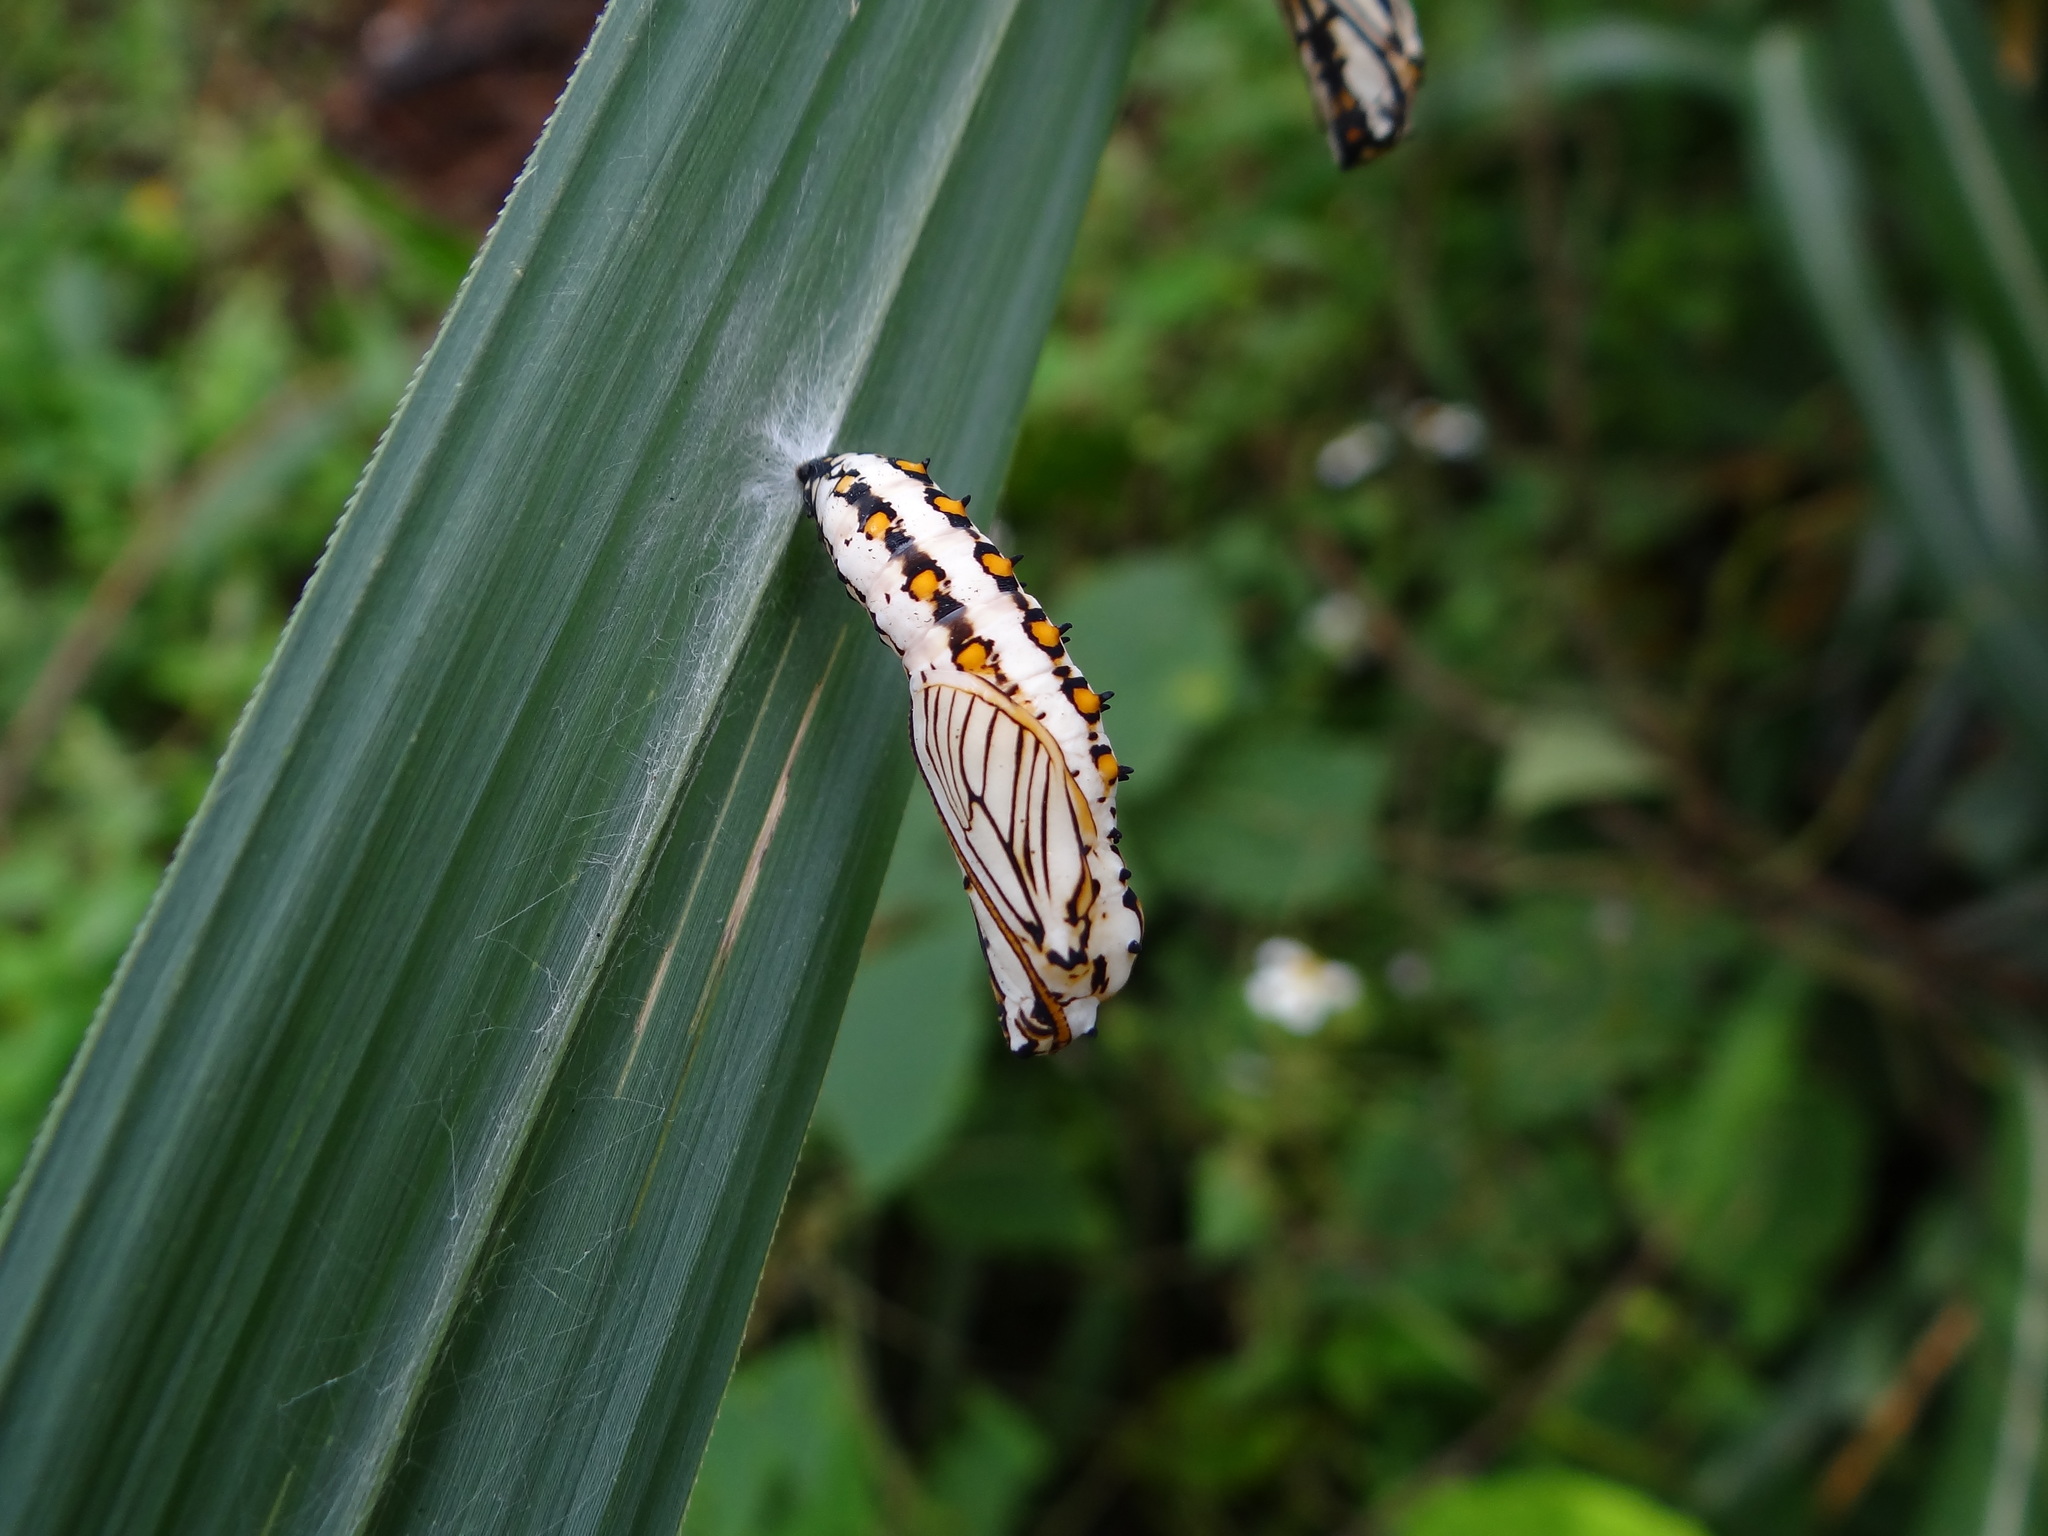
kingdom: Animalia
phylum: Arthropoda
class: Insecta
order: Lepidoptera
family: Nymphalidae
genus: Acraea
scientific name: Acraea Telchinia issoria
